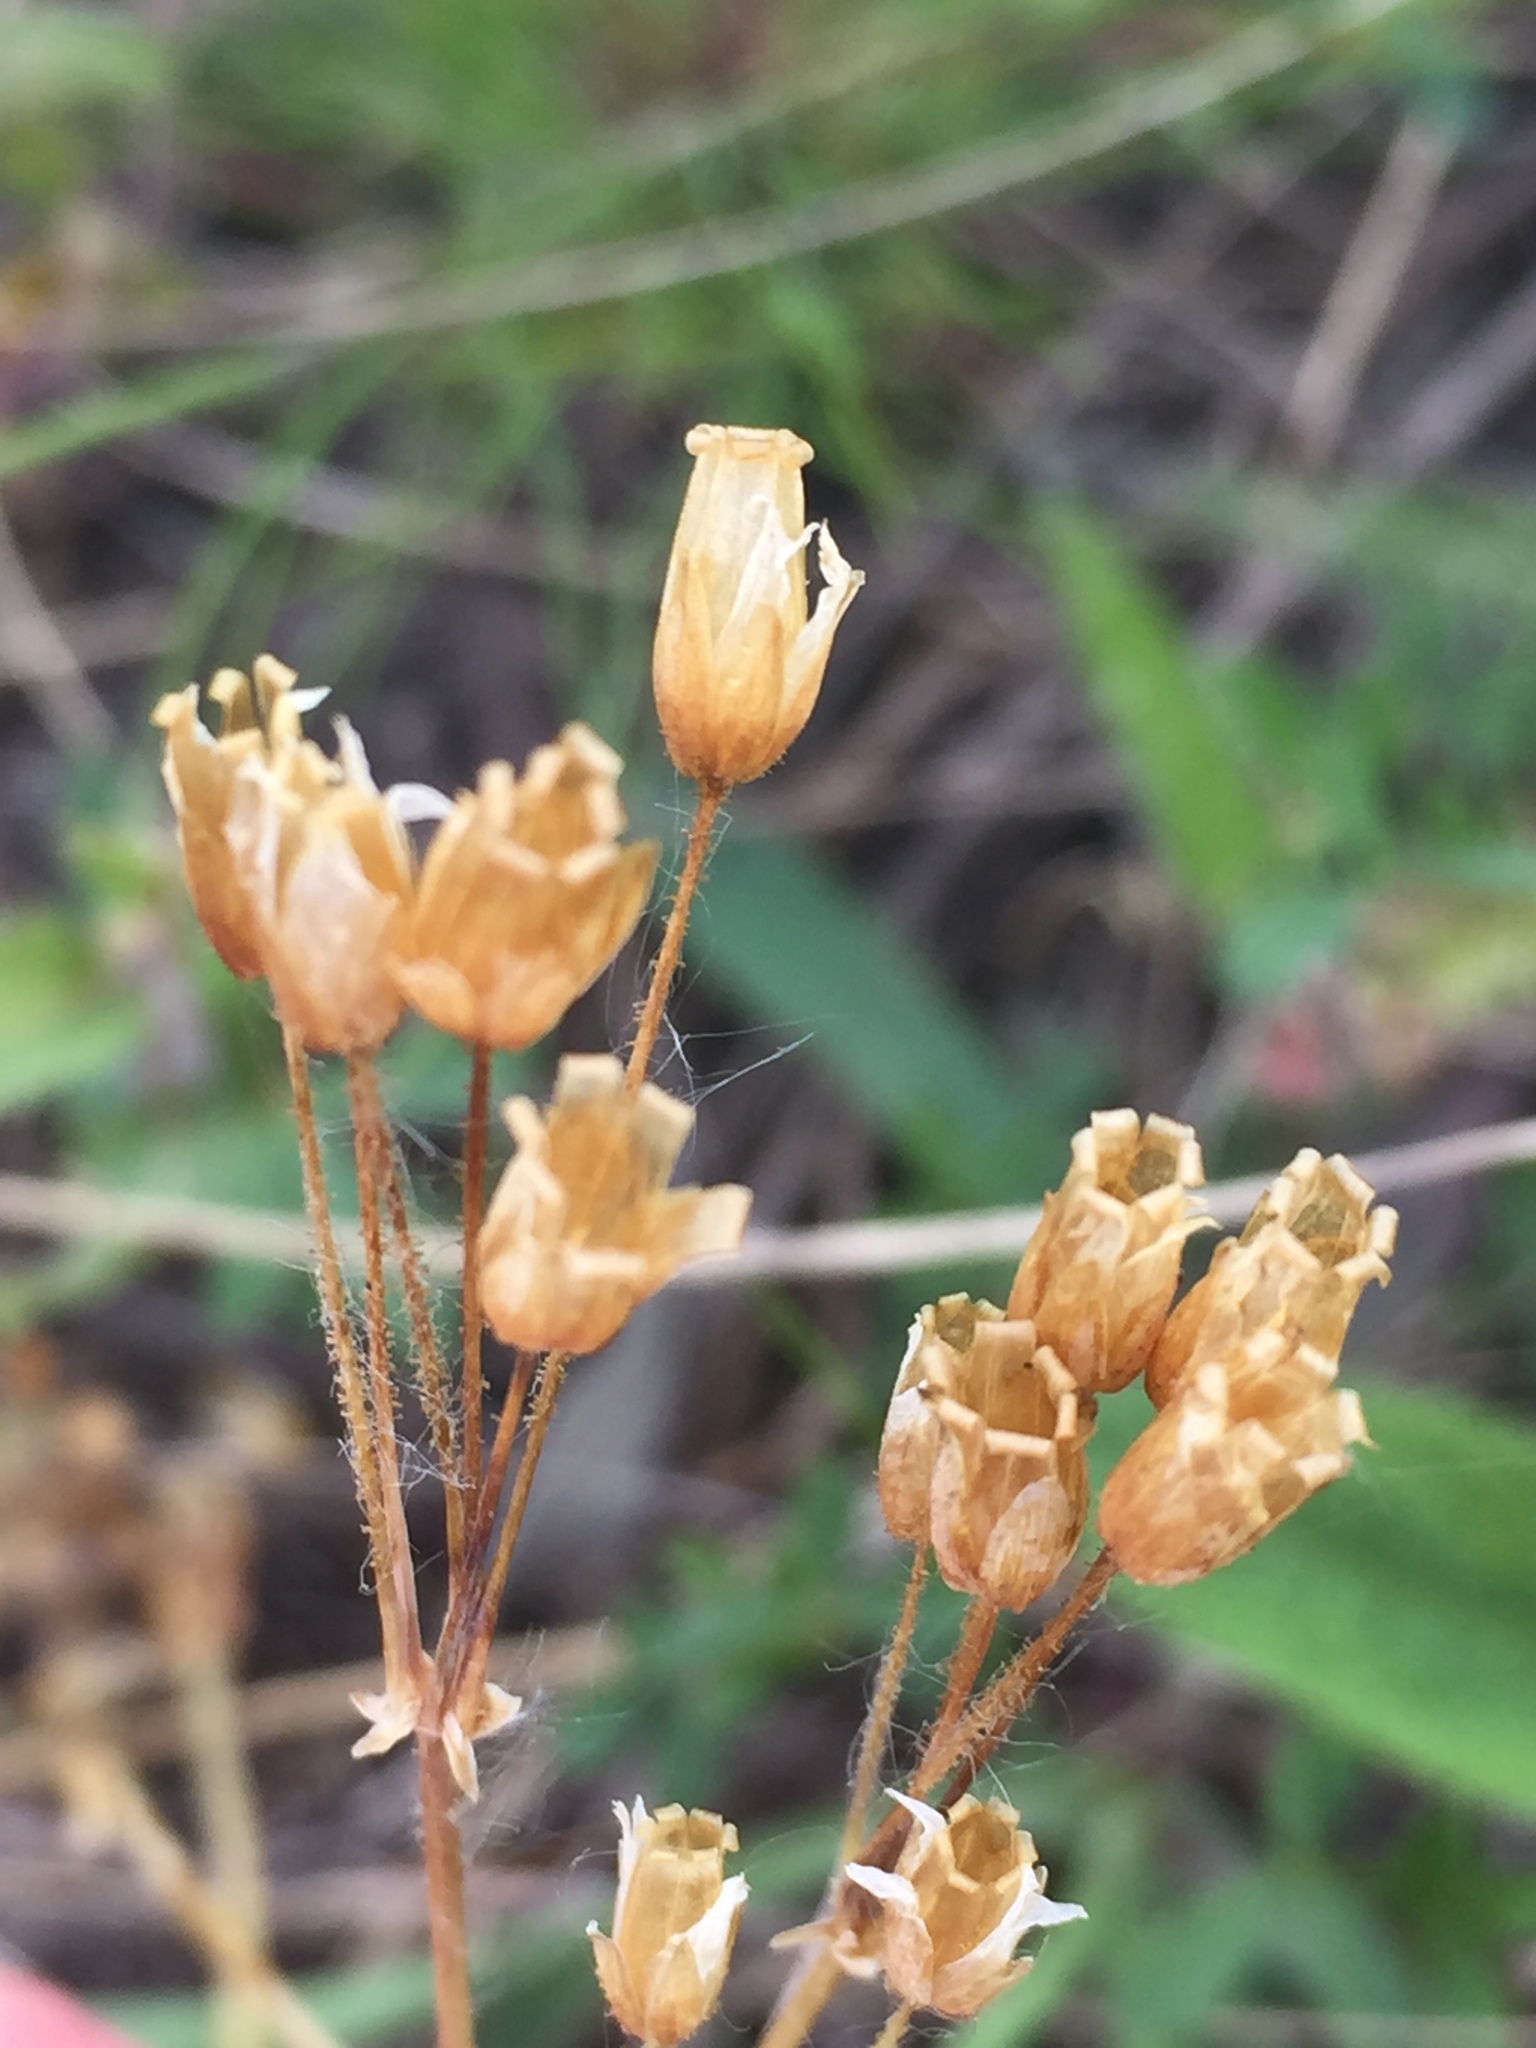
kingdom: Plantae
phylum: Tracheophyta
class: Magnoliopsida
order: Caryophyllales
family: Caryophyllaceae
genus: Holosteum
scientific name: Holosteum umbellatum
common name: Jagged chickweed
